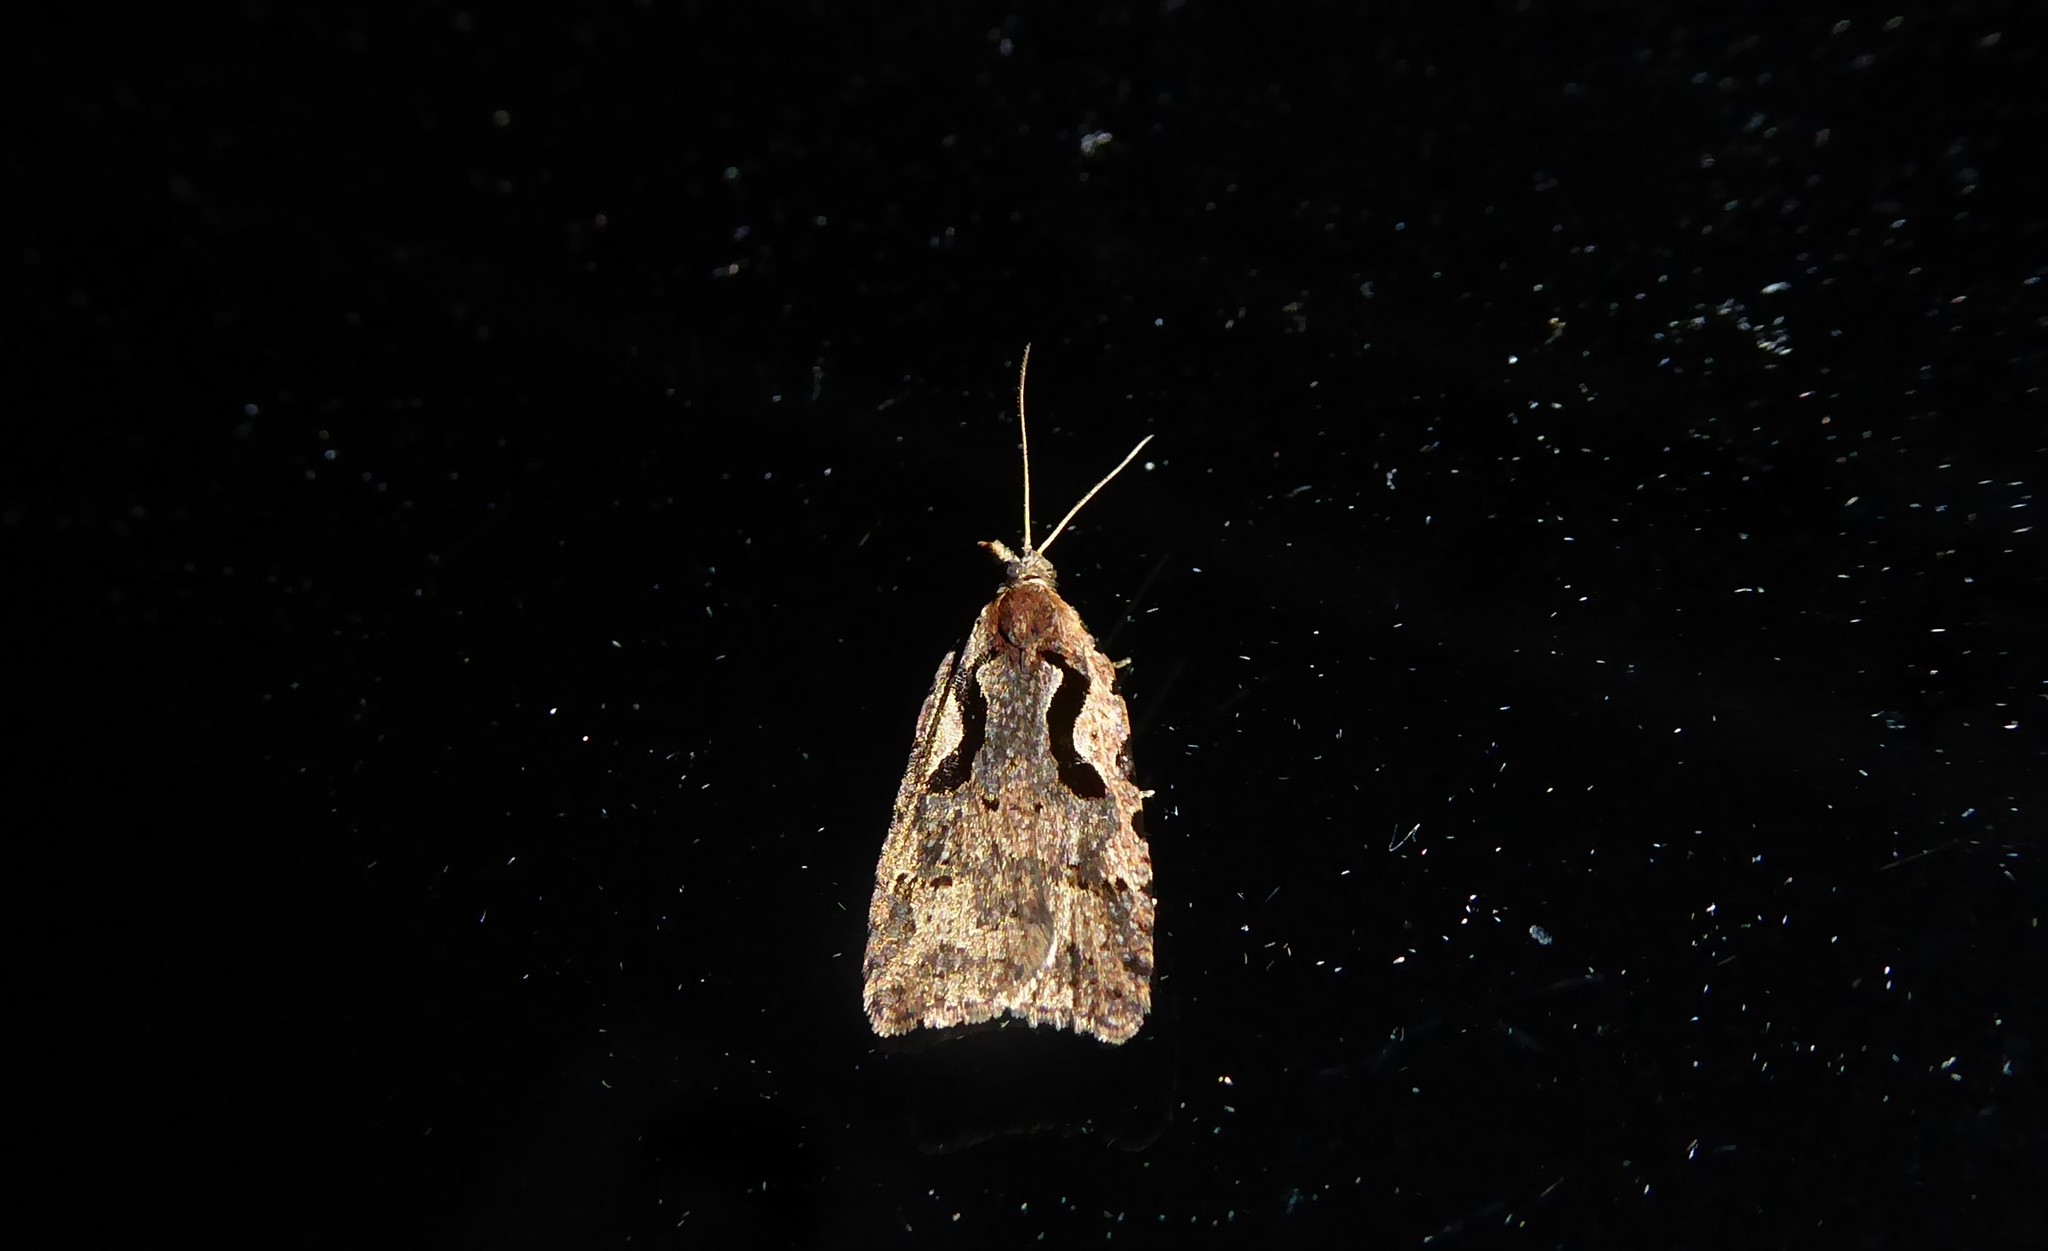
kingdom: Animalia
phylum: Arthropoda
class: Insecta
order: Lepidoptera
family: Tortricidae
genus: Cnephasia
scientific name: Cnephasia jactatana
